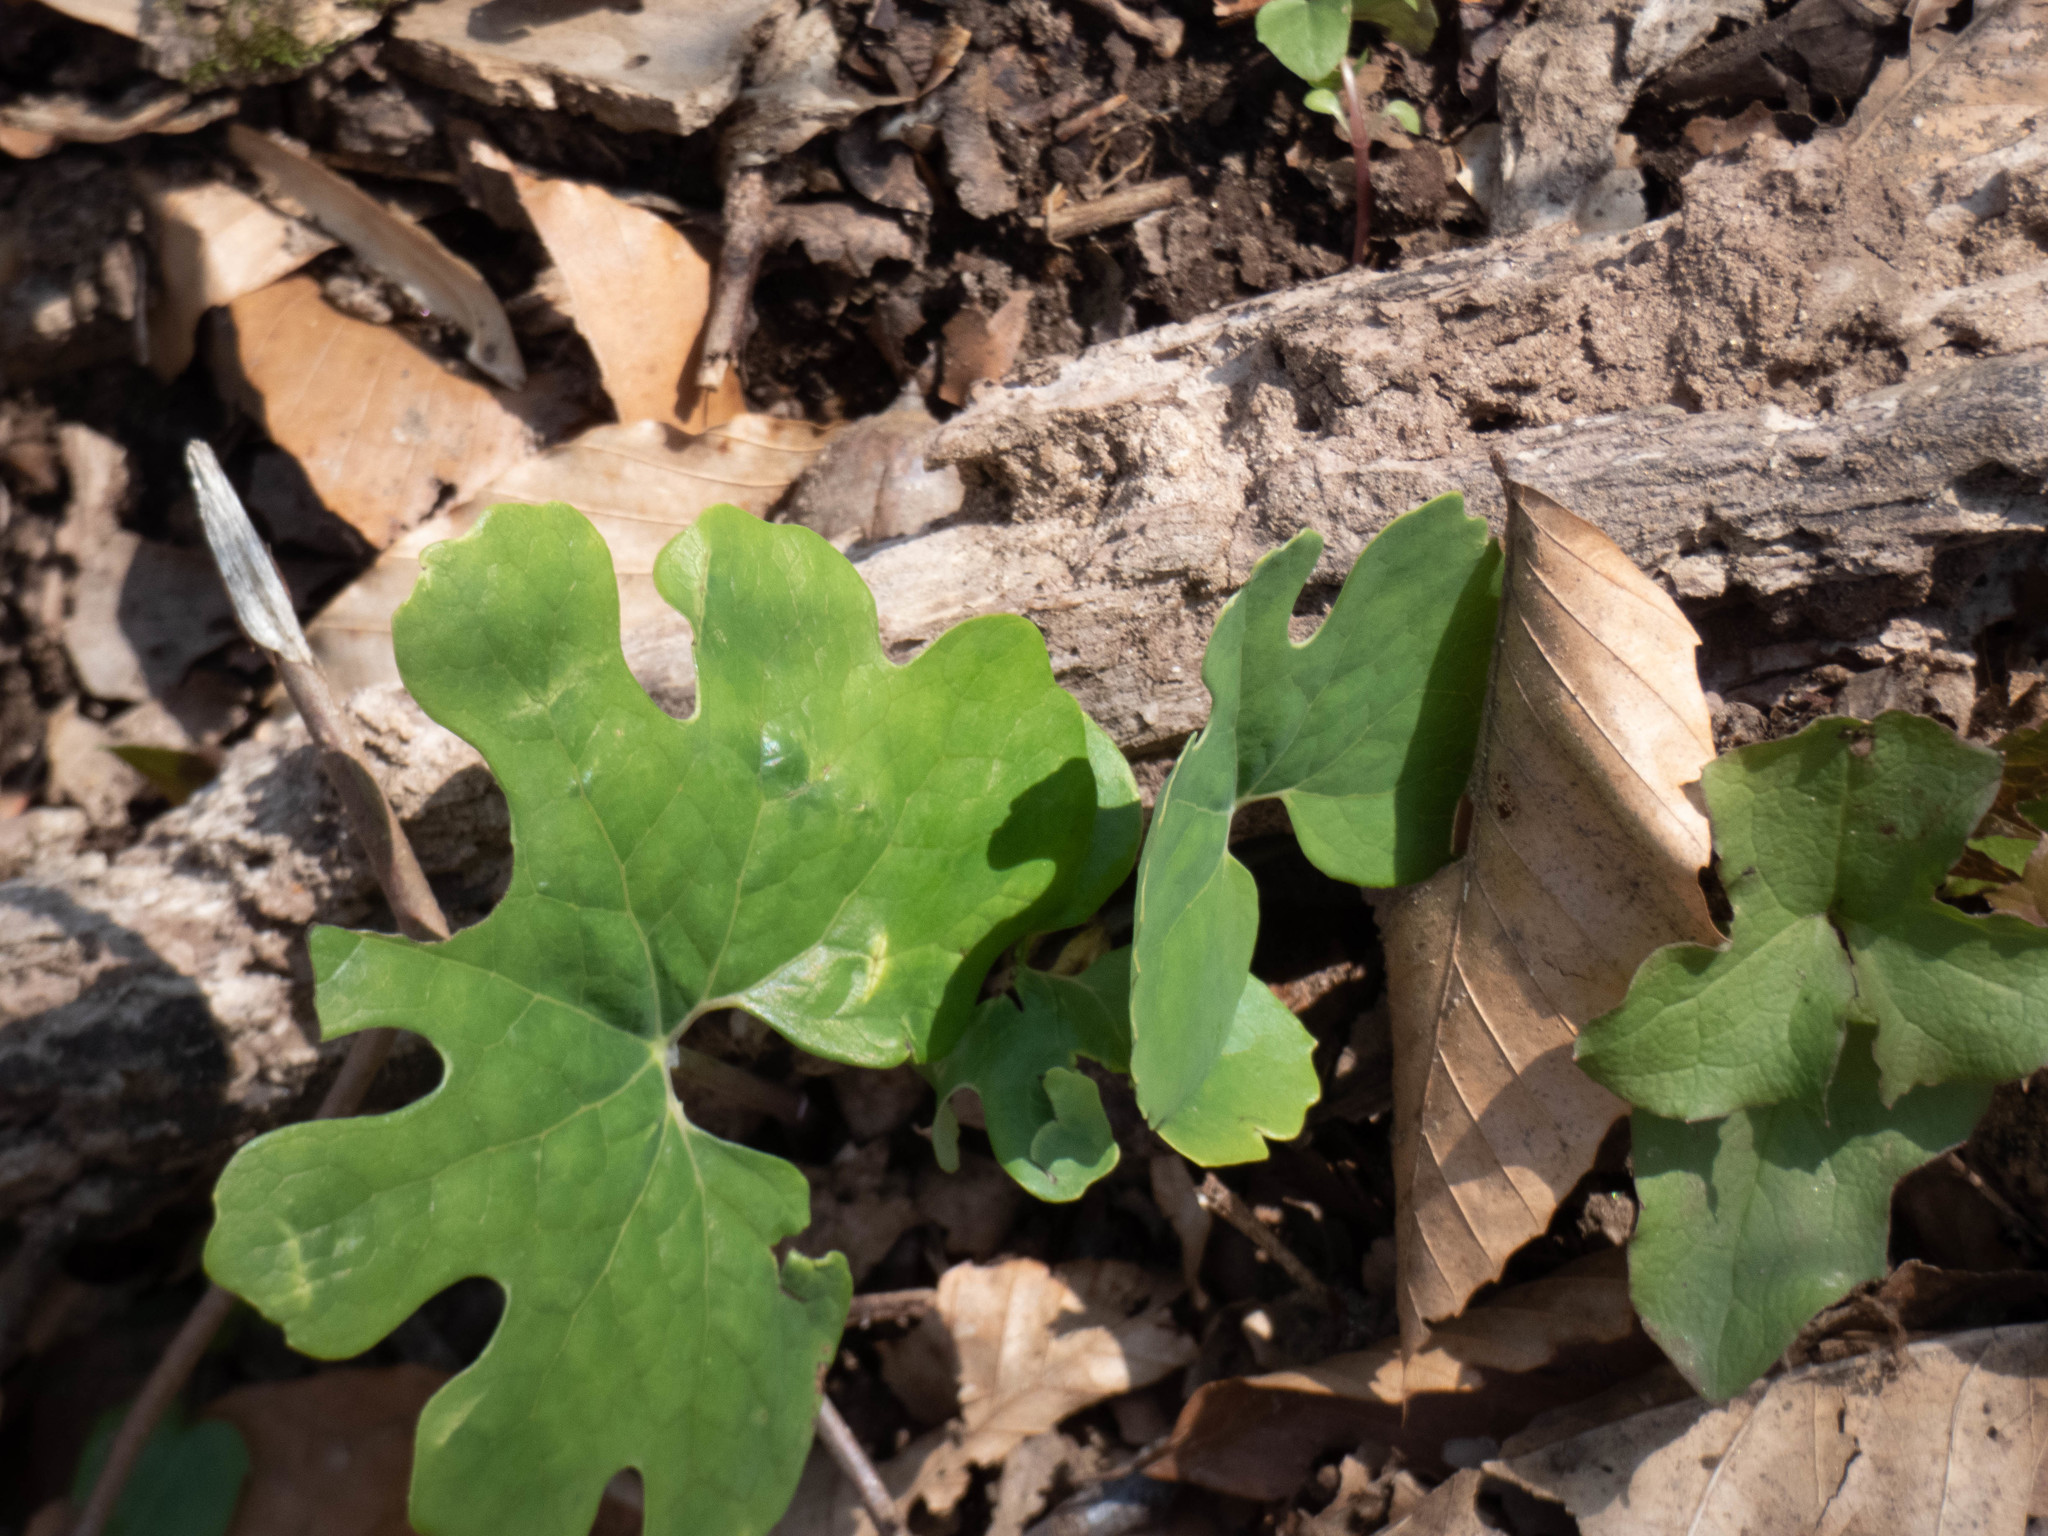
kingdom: Plantae
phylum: Tracheophyta
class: Magnoliopsida
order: Ranunculales
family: Papaveraceae
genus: Sanguinaria
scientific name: Sanguinaria canadensis
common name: Bloodroot
